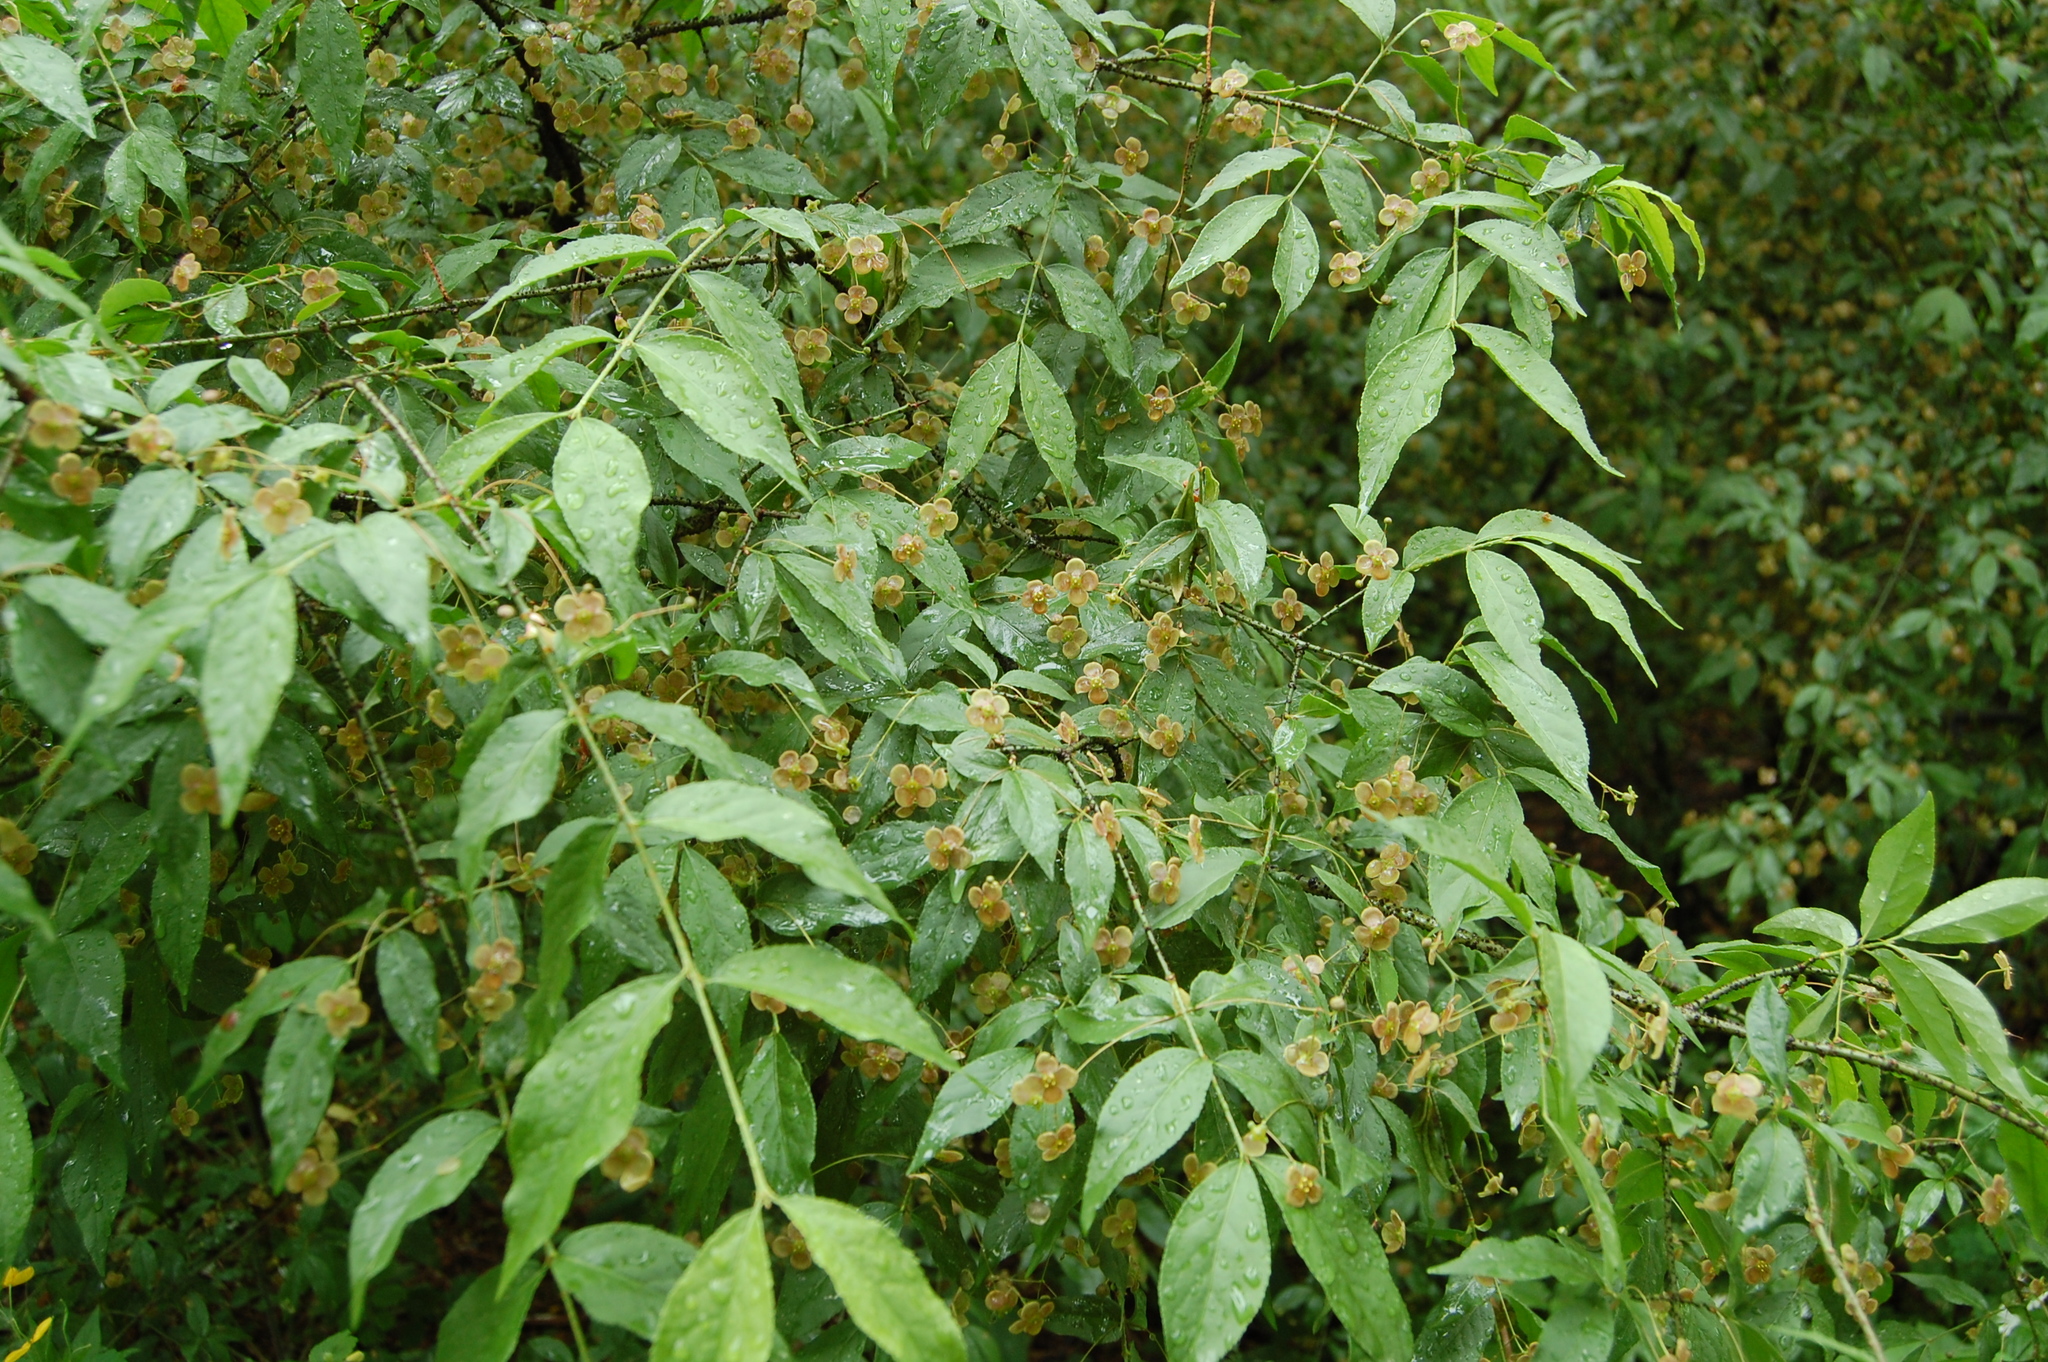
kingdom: Plantae
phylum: Tracheophyta
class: Magnoliopsida
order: Celastrales
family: Celastraceae
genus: Euonymus
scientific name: Euonymus verrucosus
